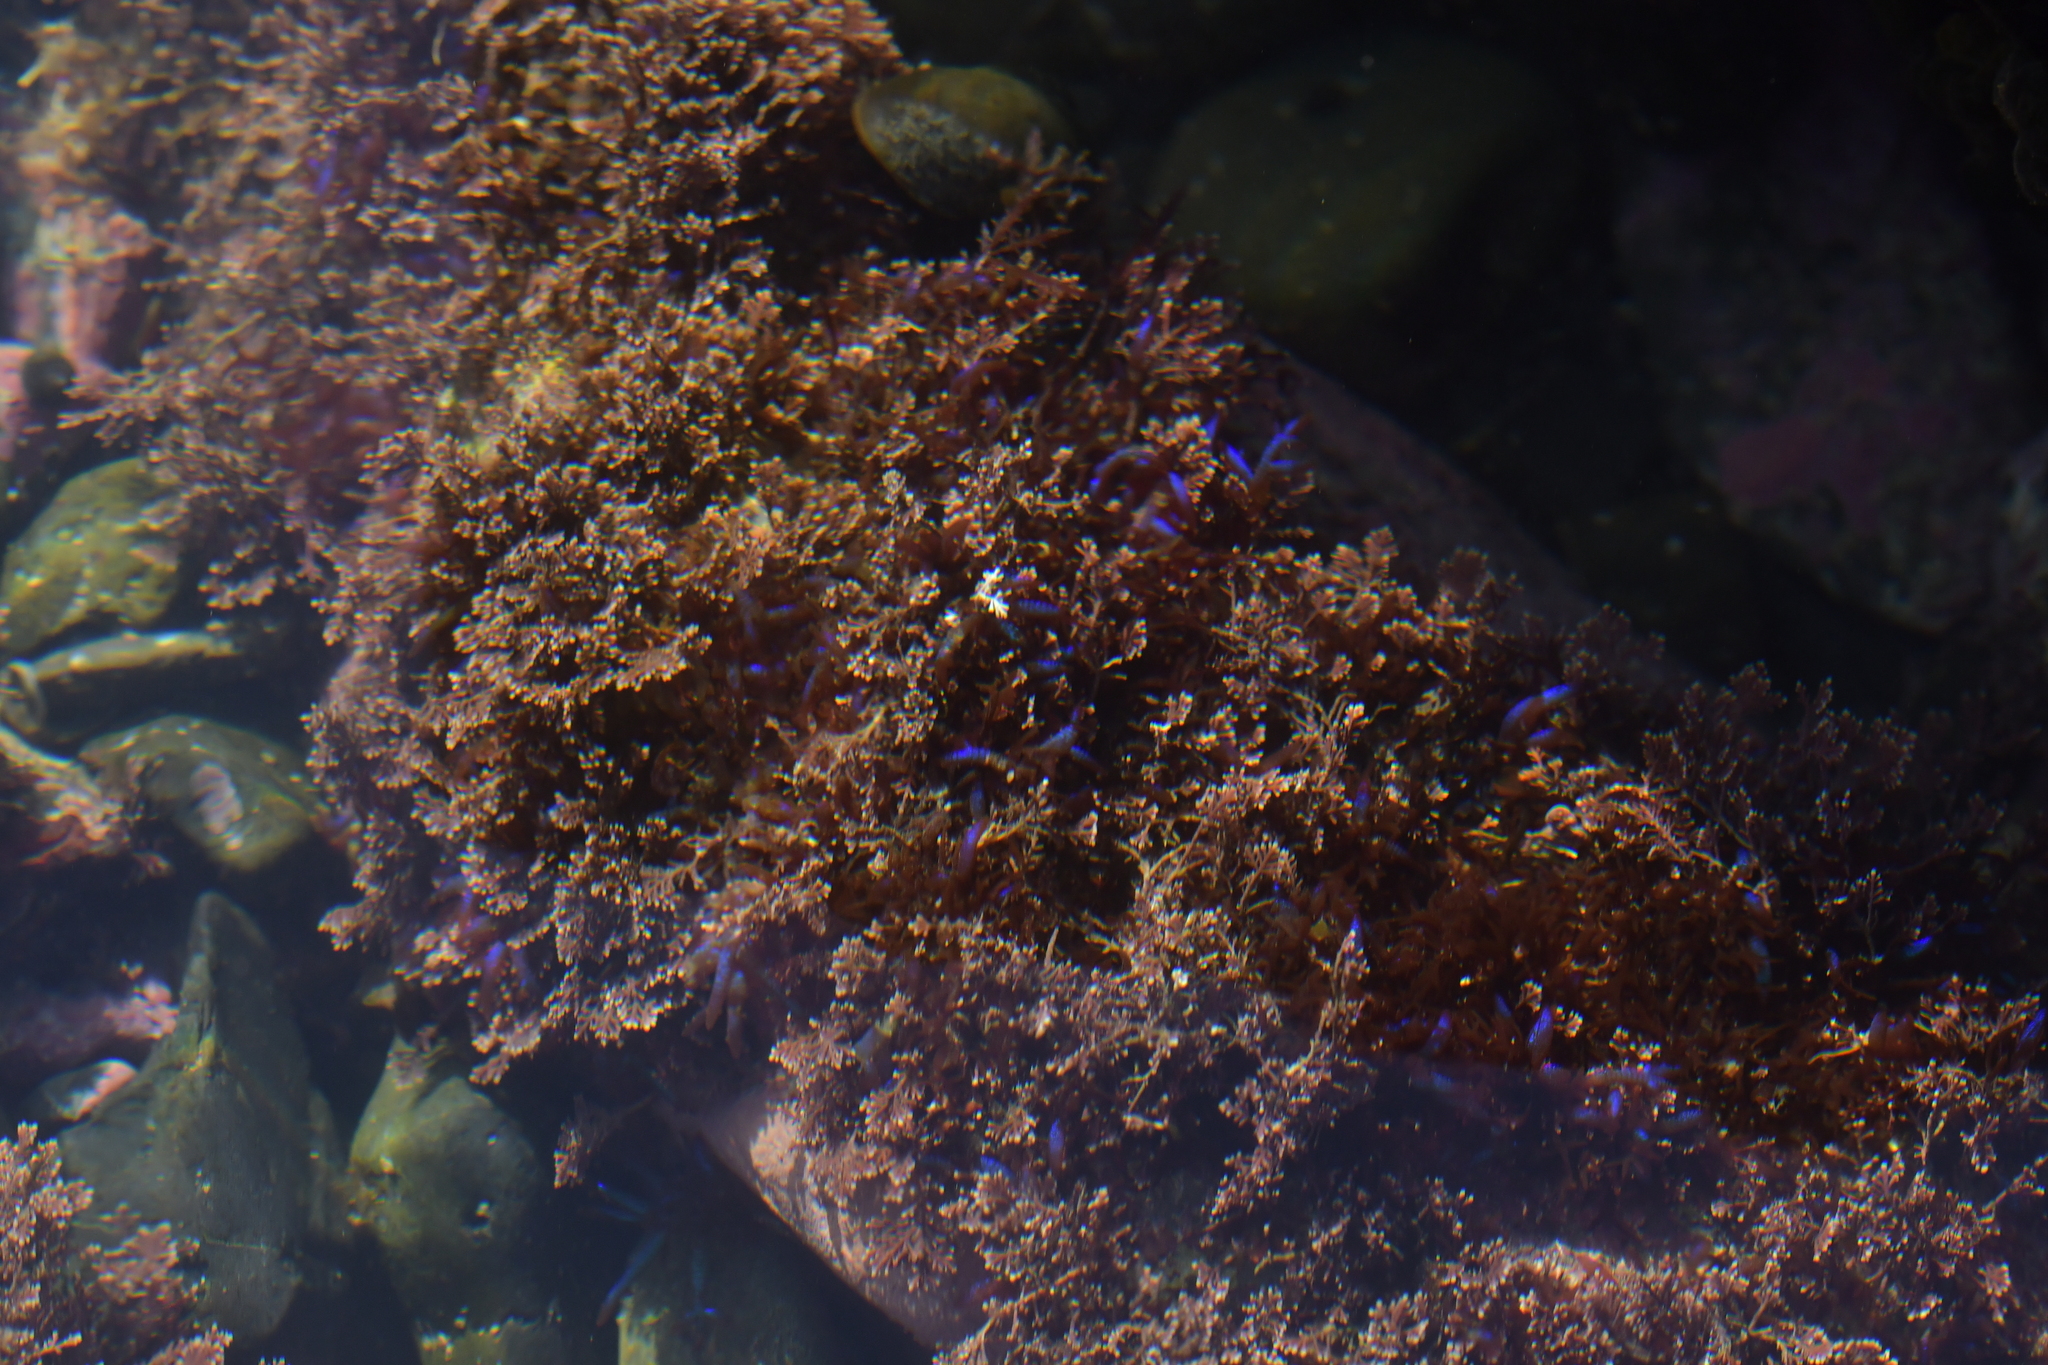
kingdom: Plantae
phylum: Rhodophyta
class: Florideophyceae
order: Rhodymeniales
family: Champiaceae
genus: Champia
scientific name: Champia laingii
